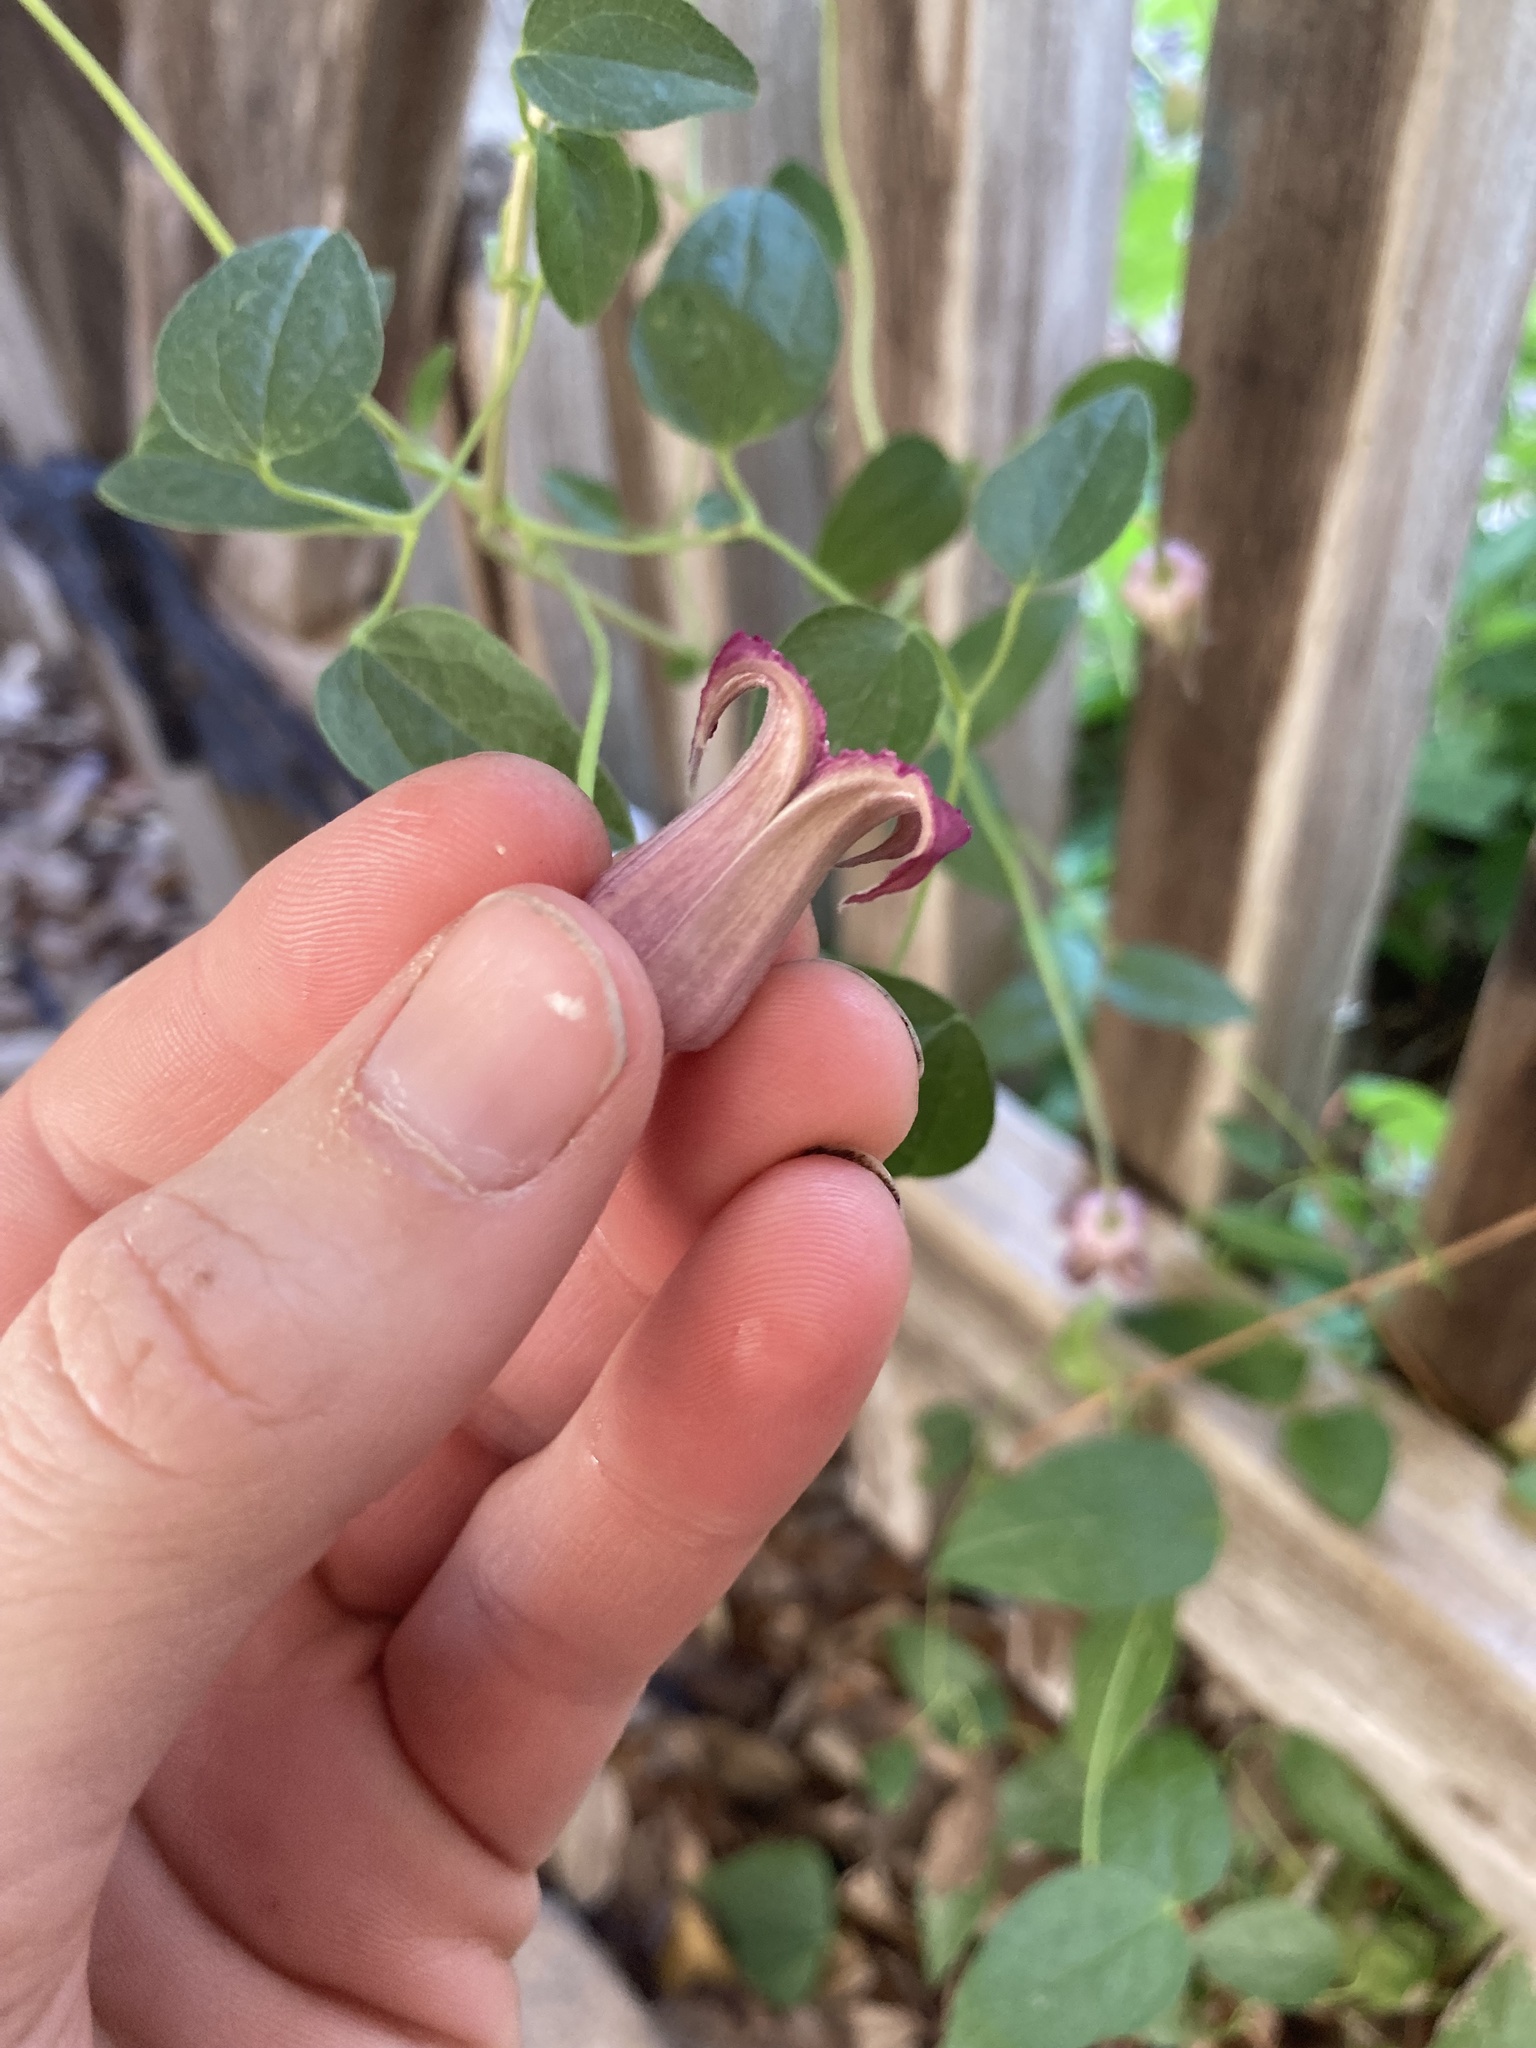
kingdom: Plantae
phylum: Tracheophyta
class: Magnoliopsida
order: Ranunculales
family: Ranunculaceae
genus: Clematis
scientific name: Clematis pitcheri
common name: Bellflower clematis
